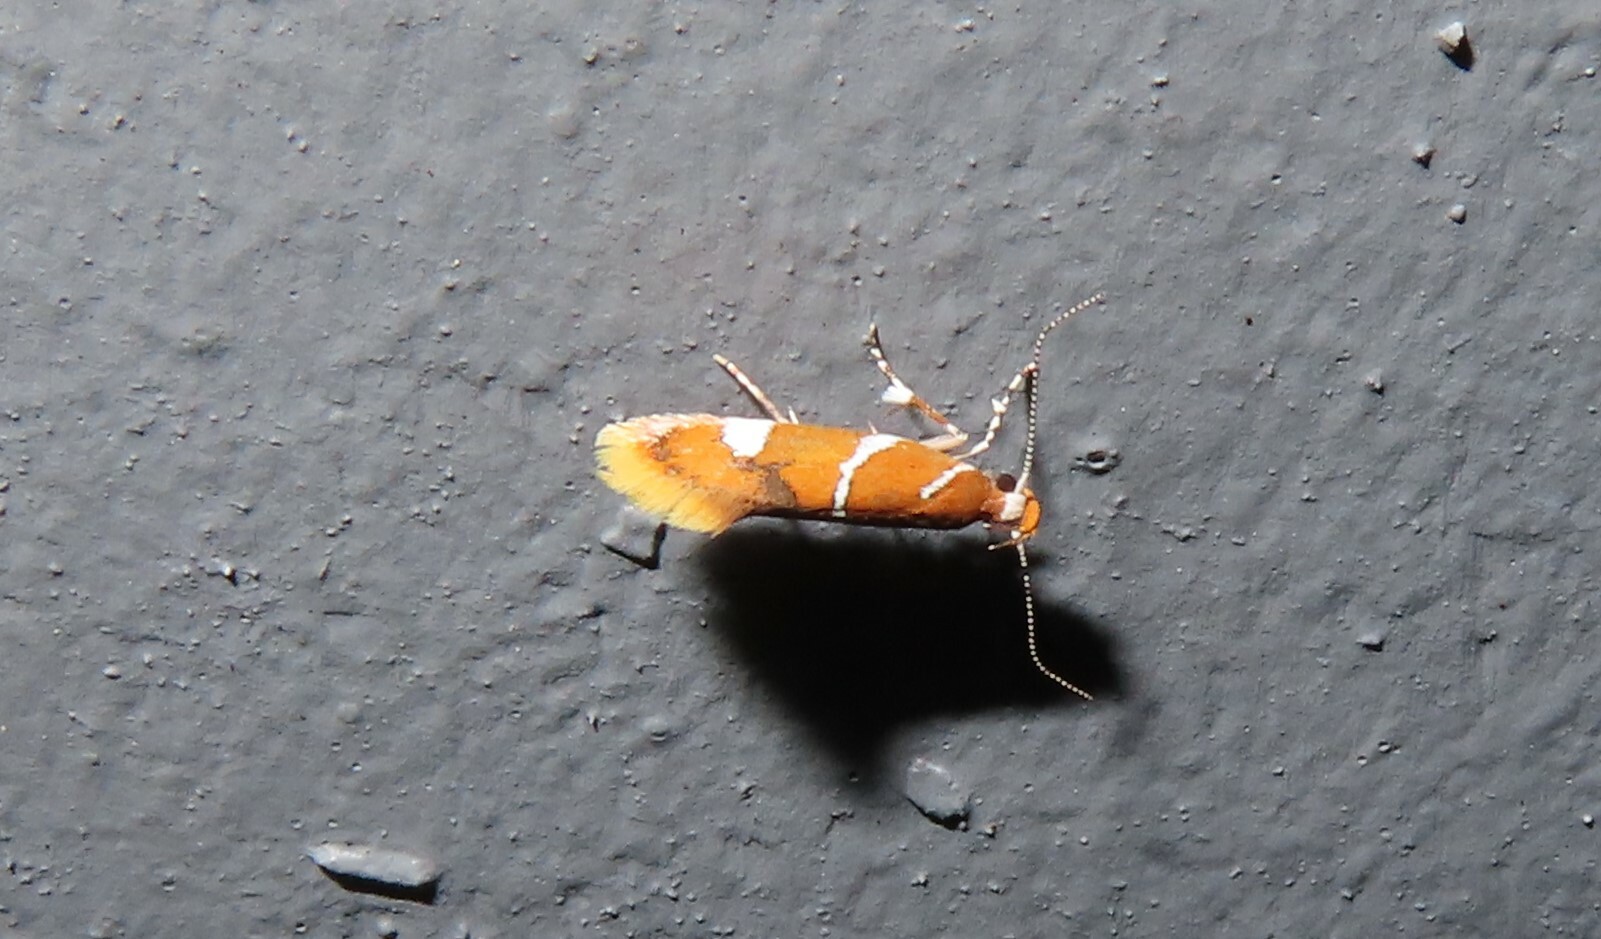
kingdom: Animalia
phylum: Arthropoda
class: Insecta
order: Lepidoptera
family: Oecophoridae
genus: Promalactis
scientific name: Promalactis suzukiella
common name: Moth
